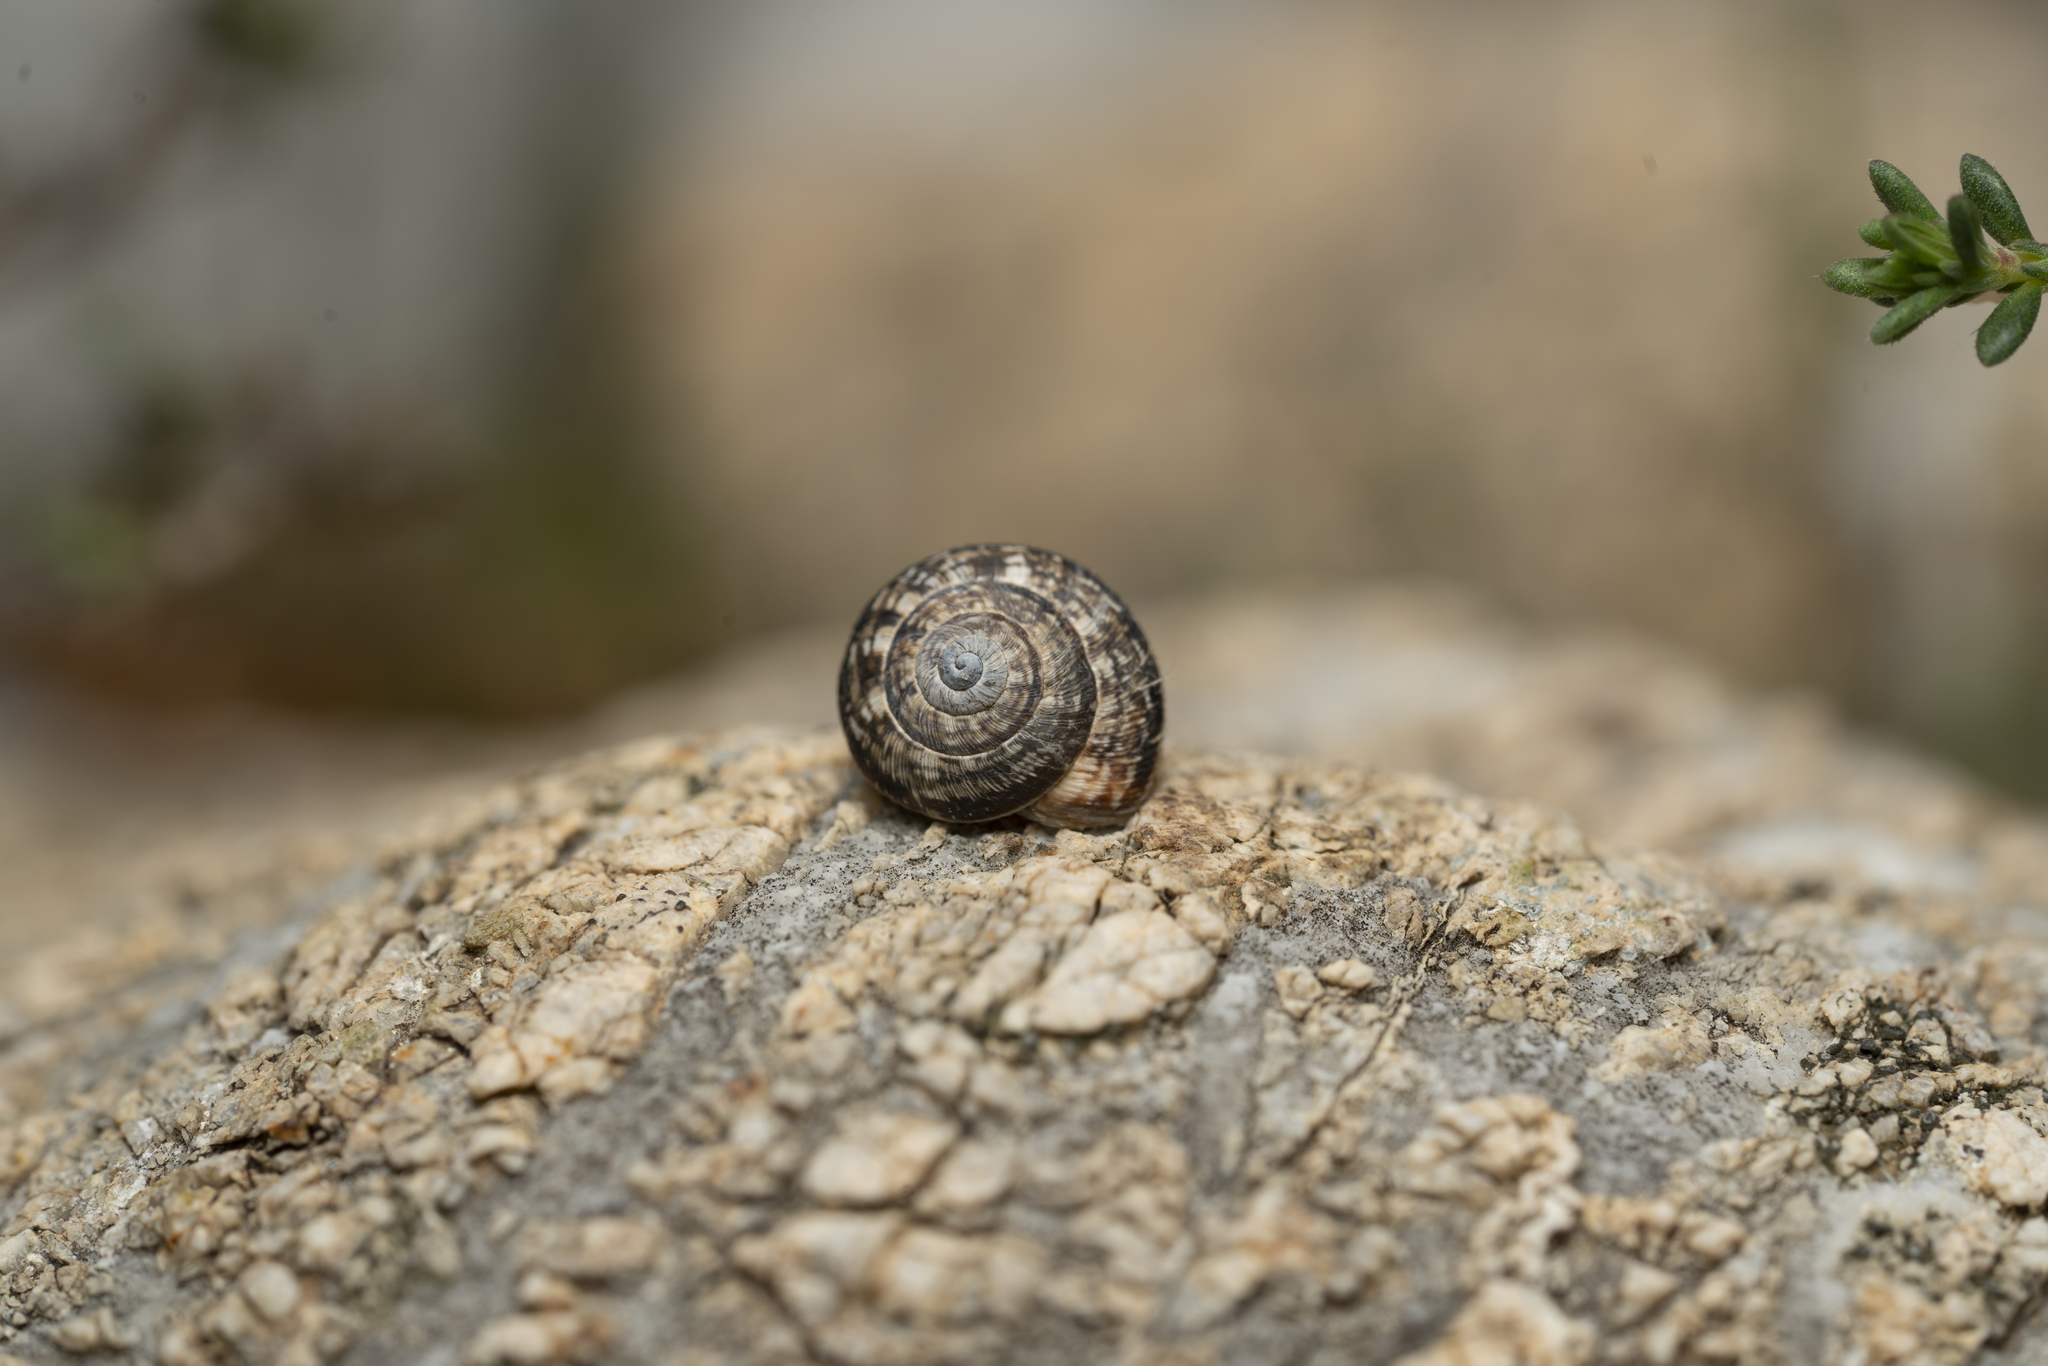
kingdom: Animalia
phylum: Mollusca
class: Gastropoda
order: Stylommatophora
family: Geomitridae
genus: Xerocrassa
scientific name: Xerocrassa cretica
